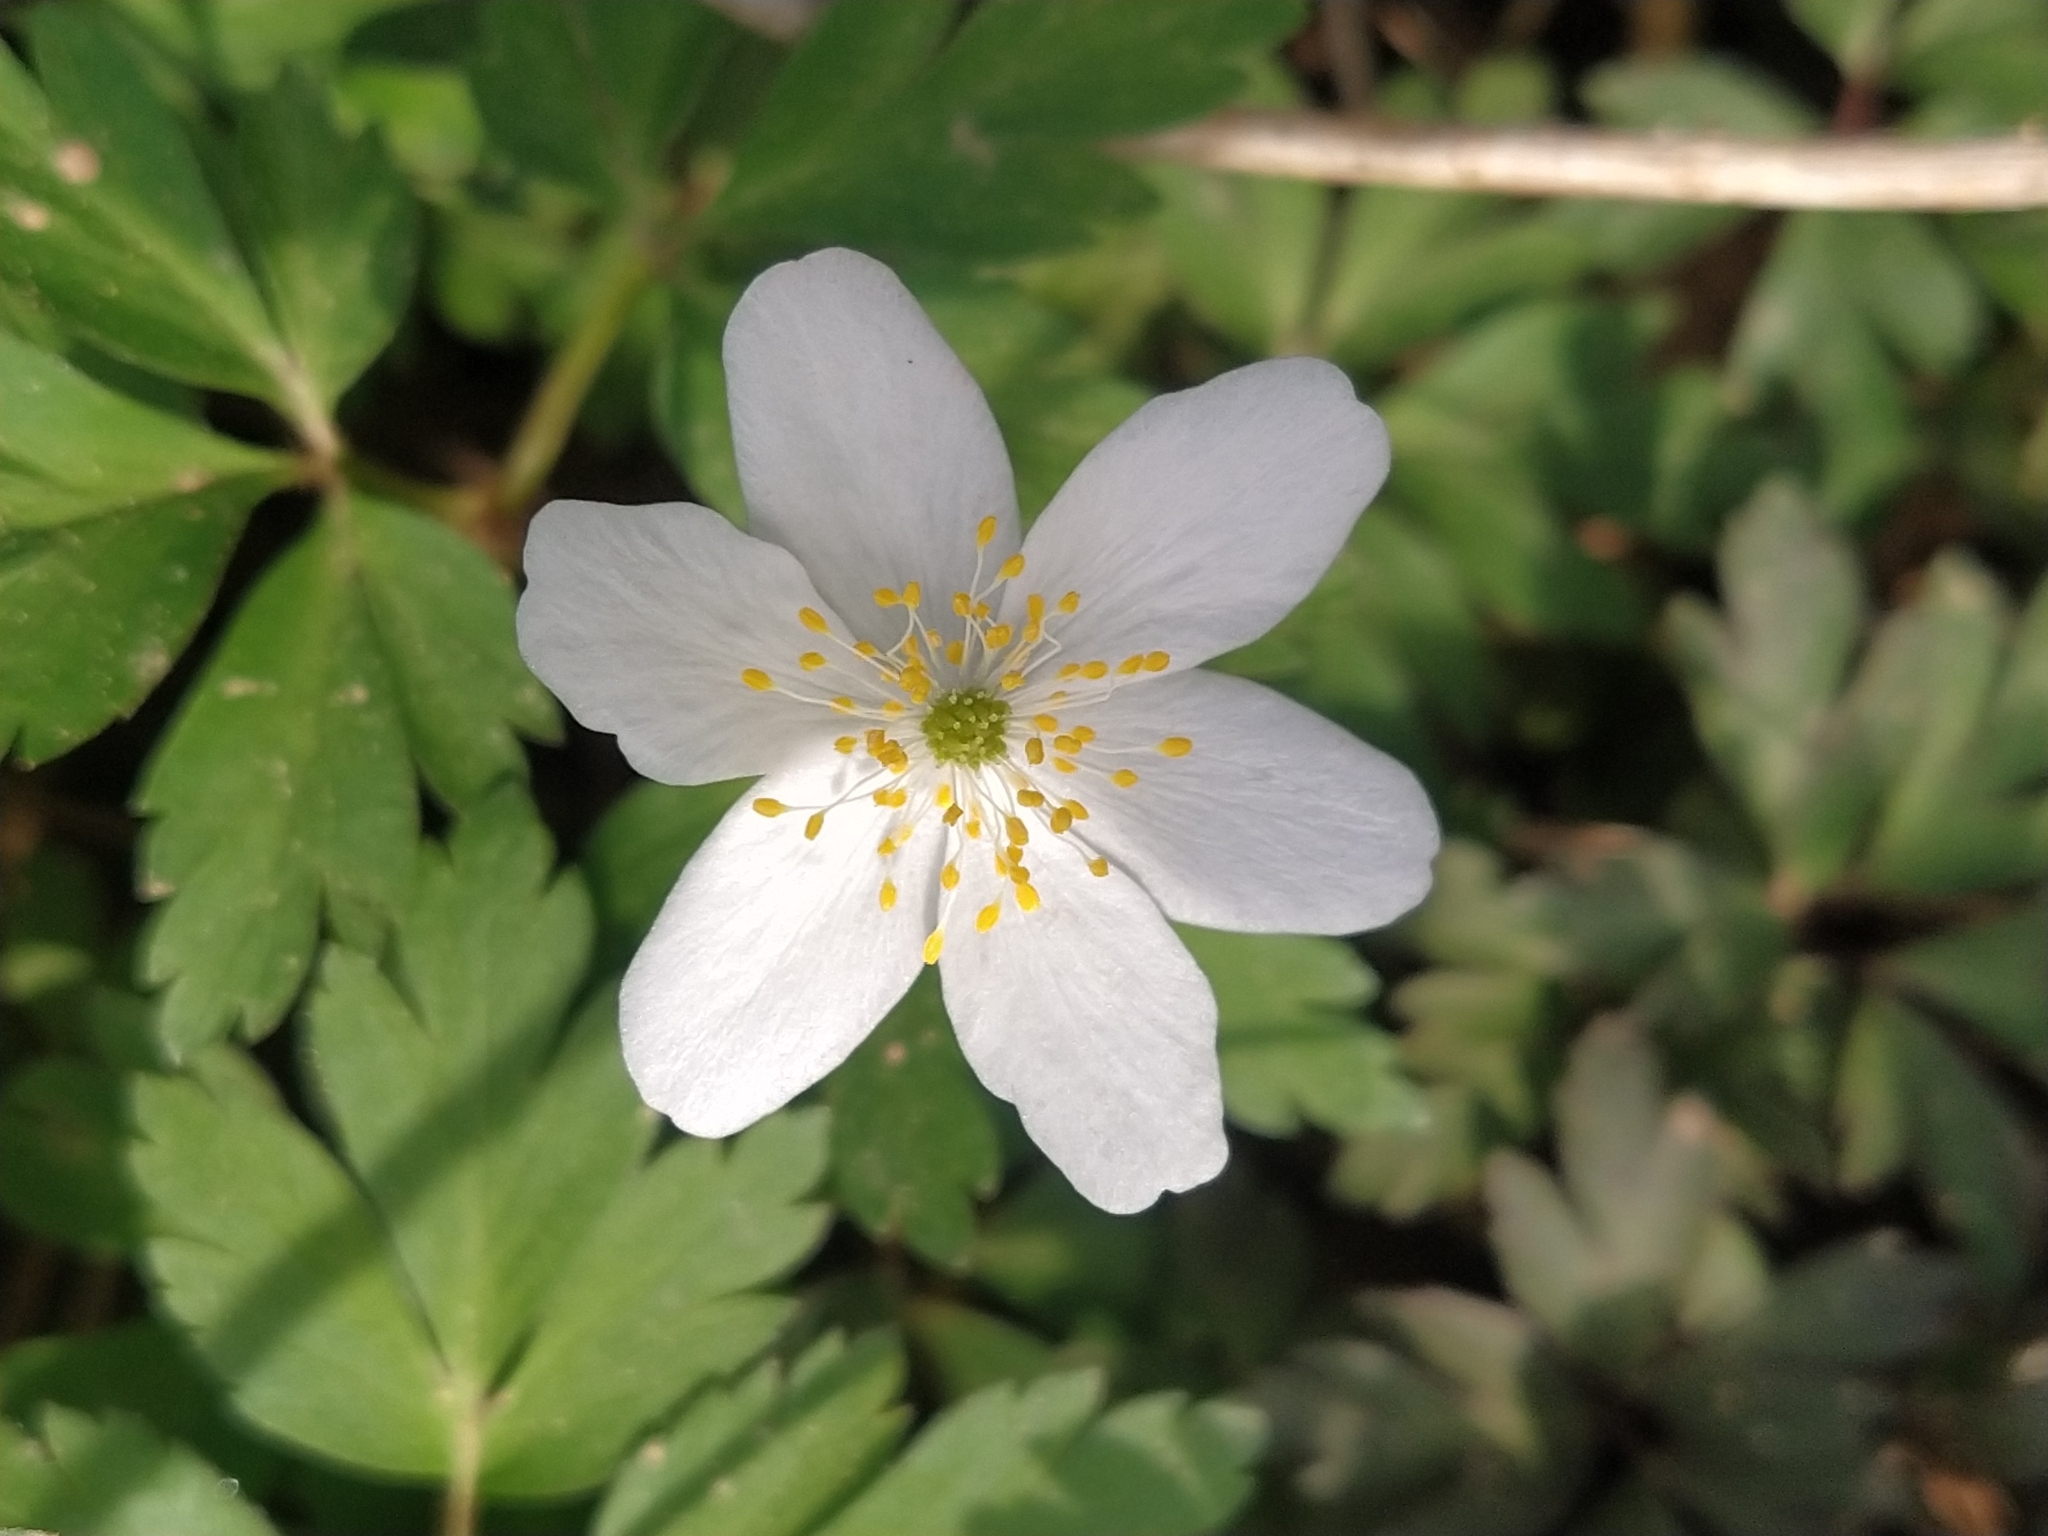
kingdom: Plantae
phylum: Tracheophyta
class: Magnoliopsida
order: Ranunculales
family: Ranunculaceae
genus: Anemone
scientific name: Anemone nemorosa
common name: Wood anemone
